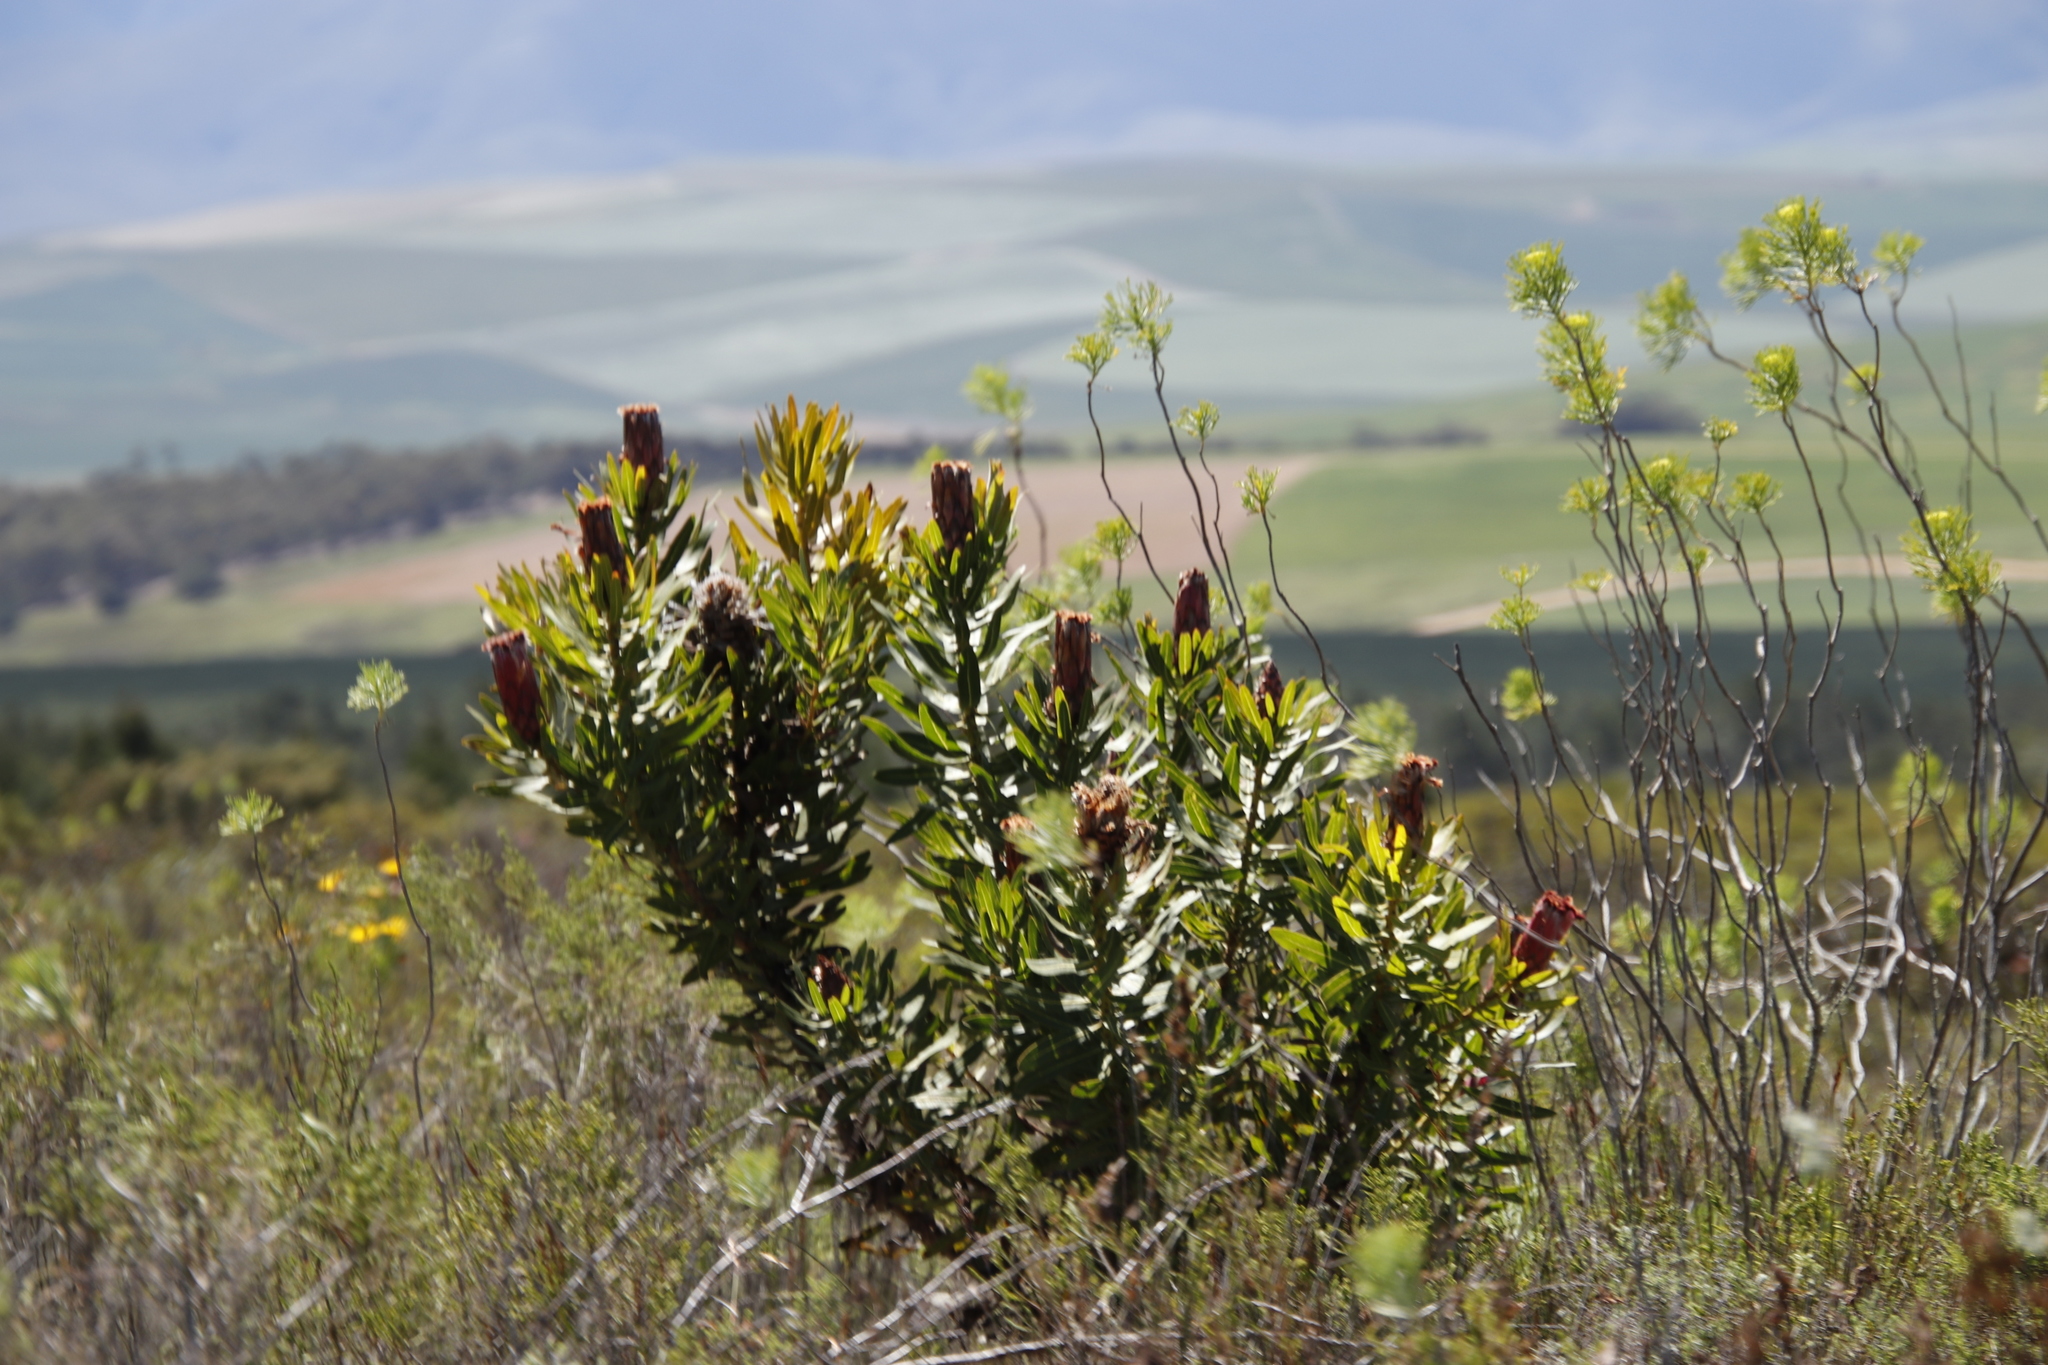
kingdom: Plantae
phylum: Tracheophyta
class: Magnoliopsida
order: Proteales
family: Proteaceae
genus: Protea
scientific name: Protea neriifolia
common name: Blue sugarbush
